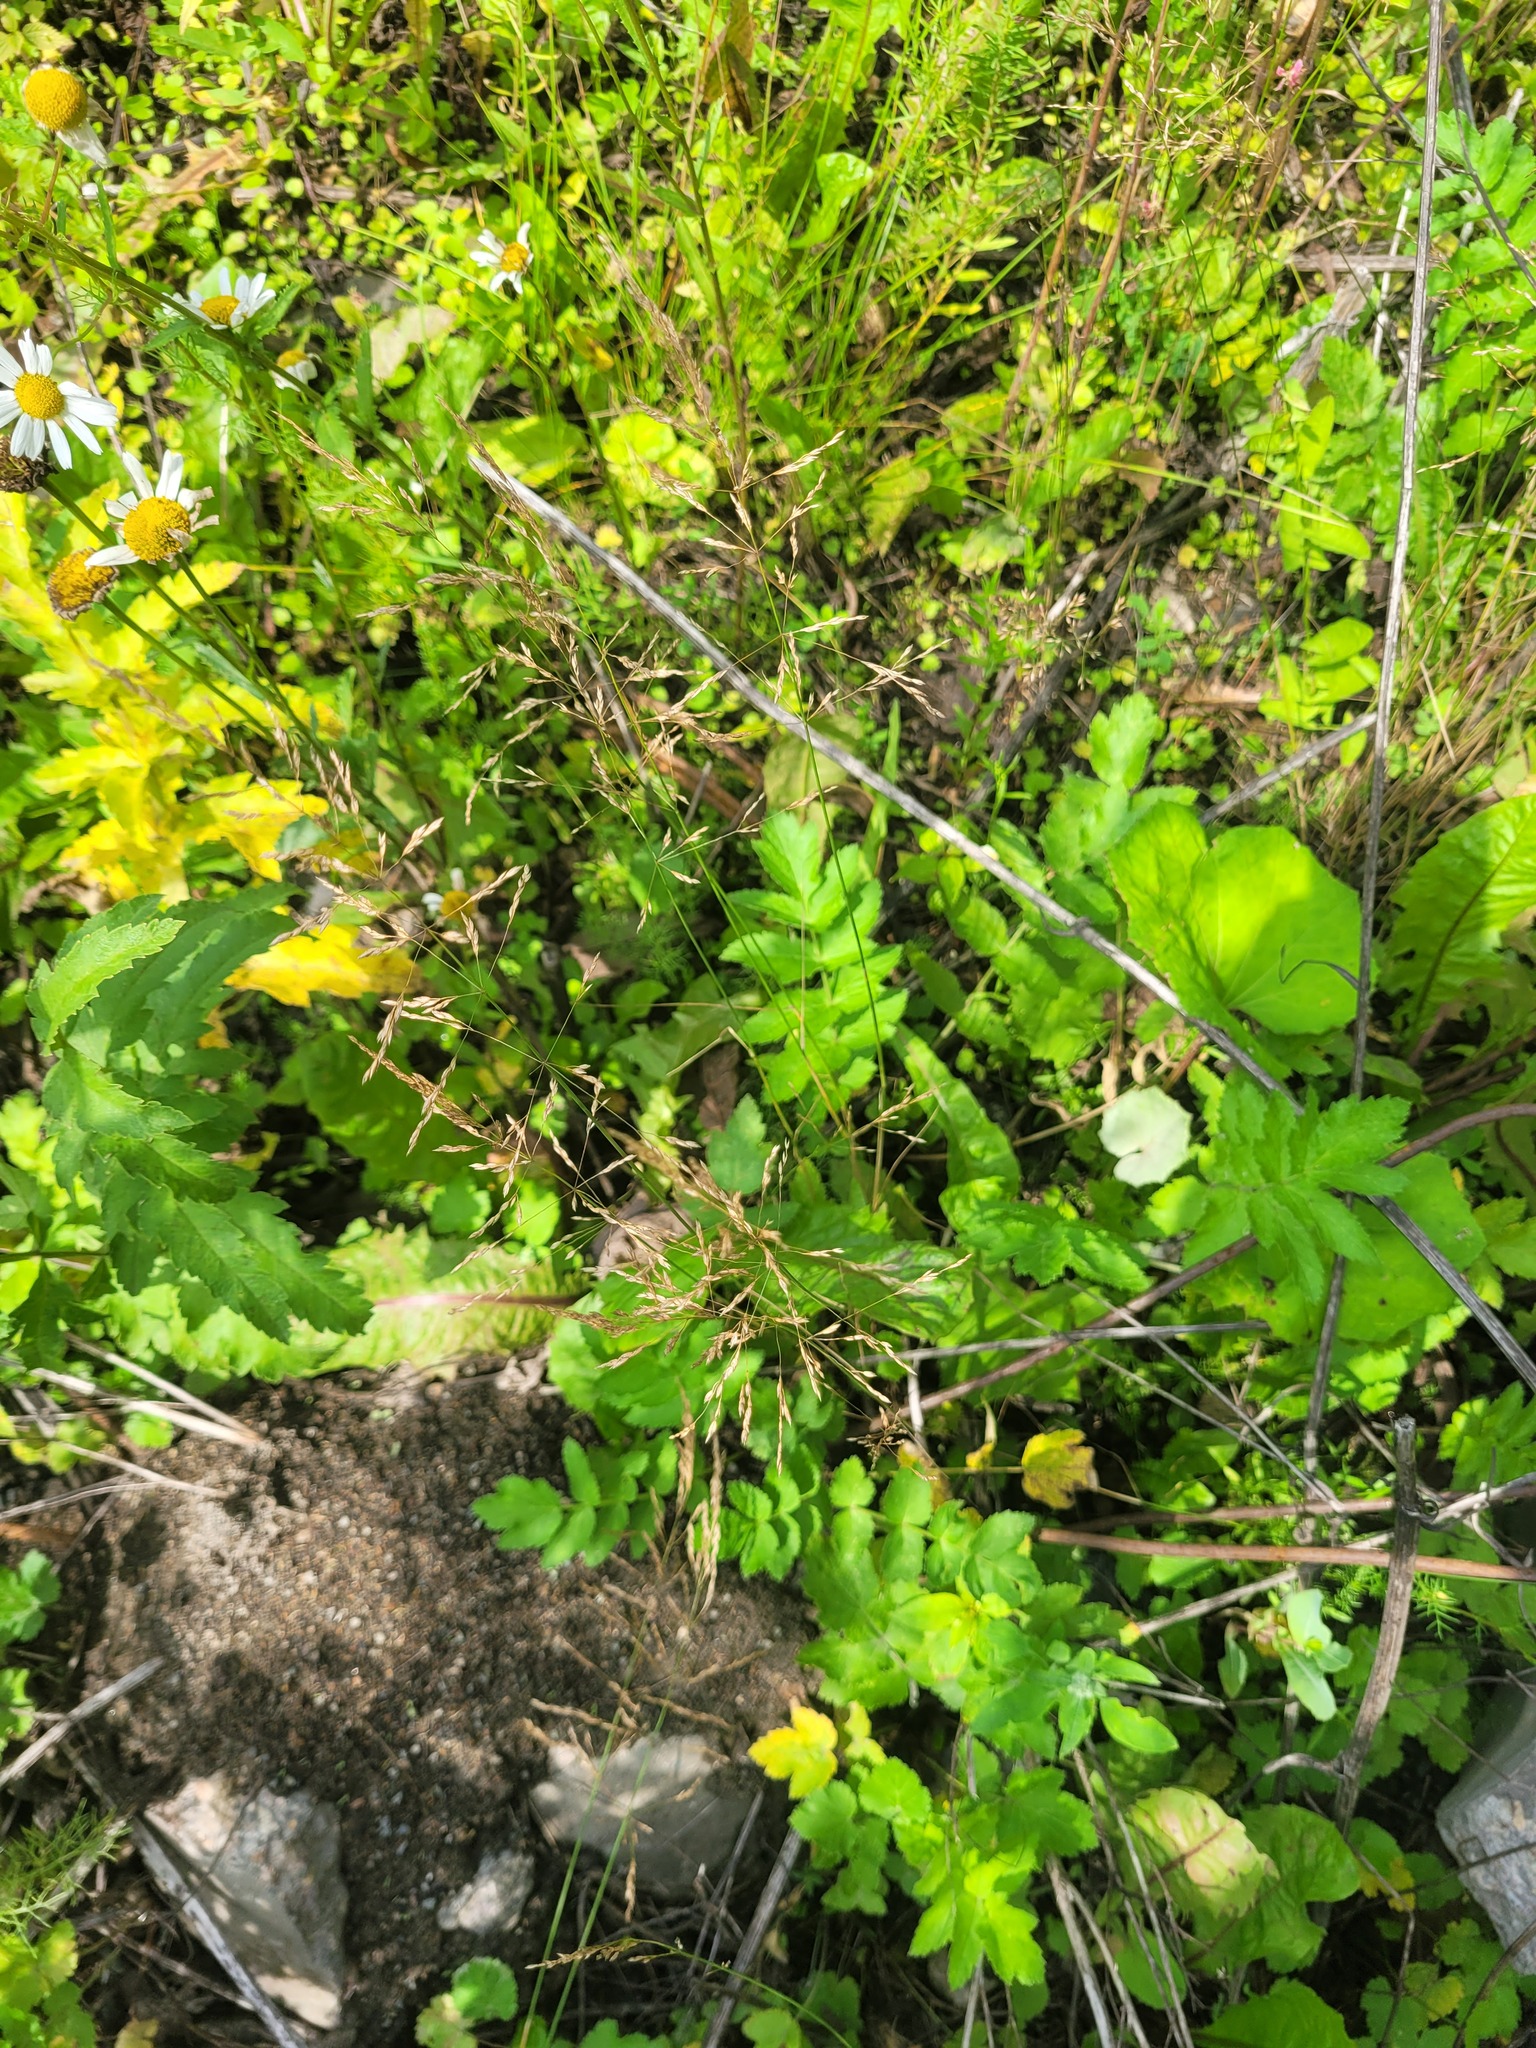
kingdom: Plantae
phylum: Tracheophyta
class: Liliopsida
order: Poales
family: Poaceae
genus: Poa
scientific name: Poa palustris
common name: Swamp meadow-grass
